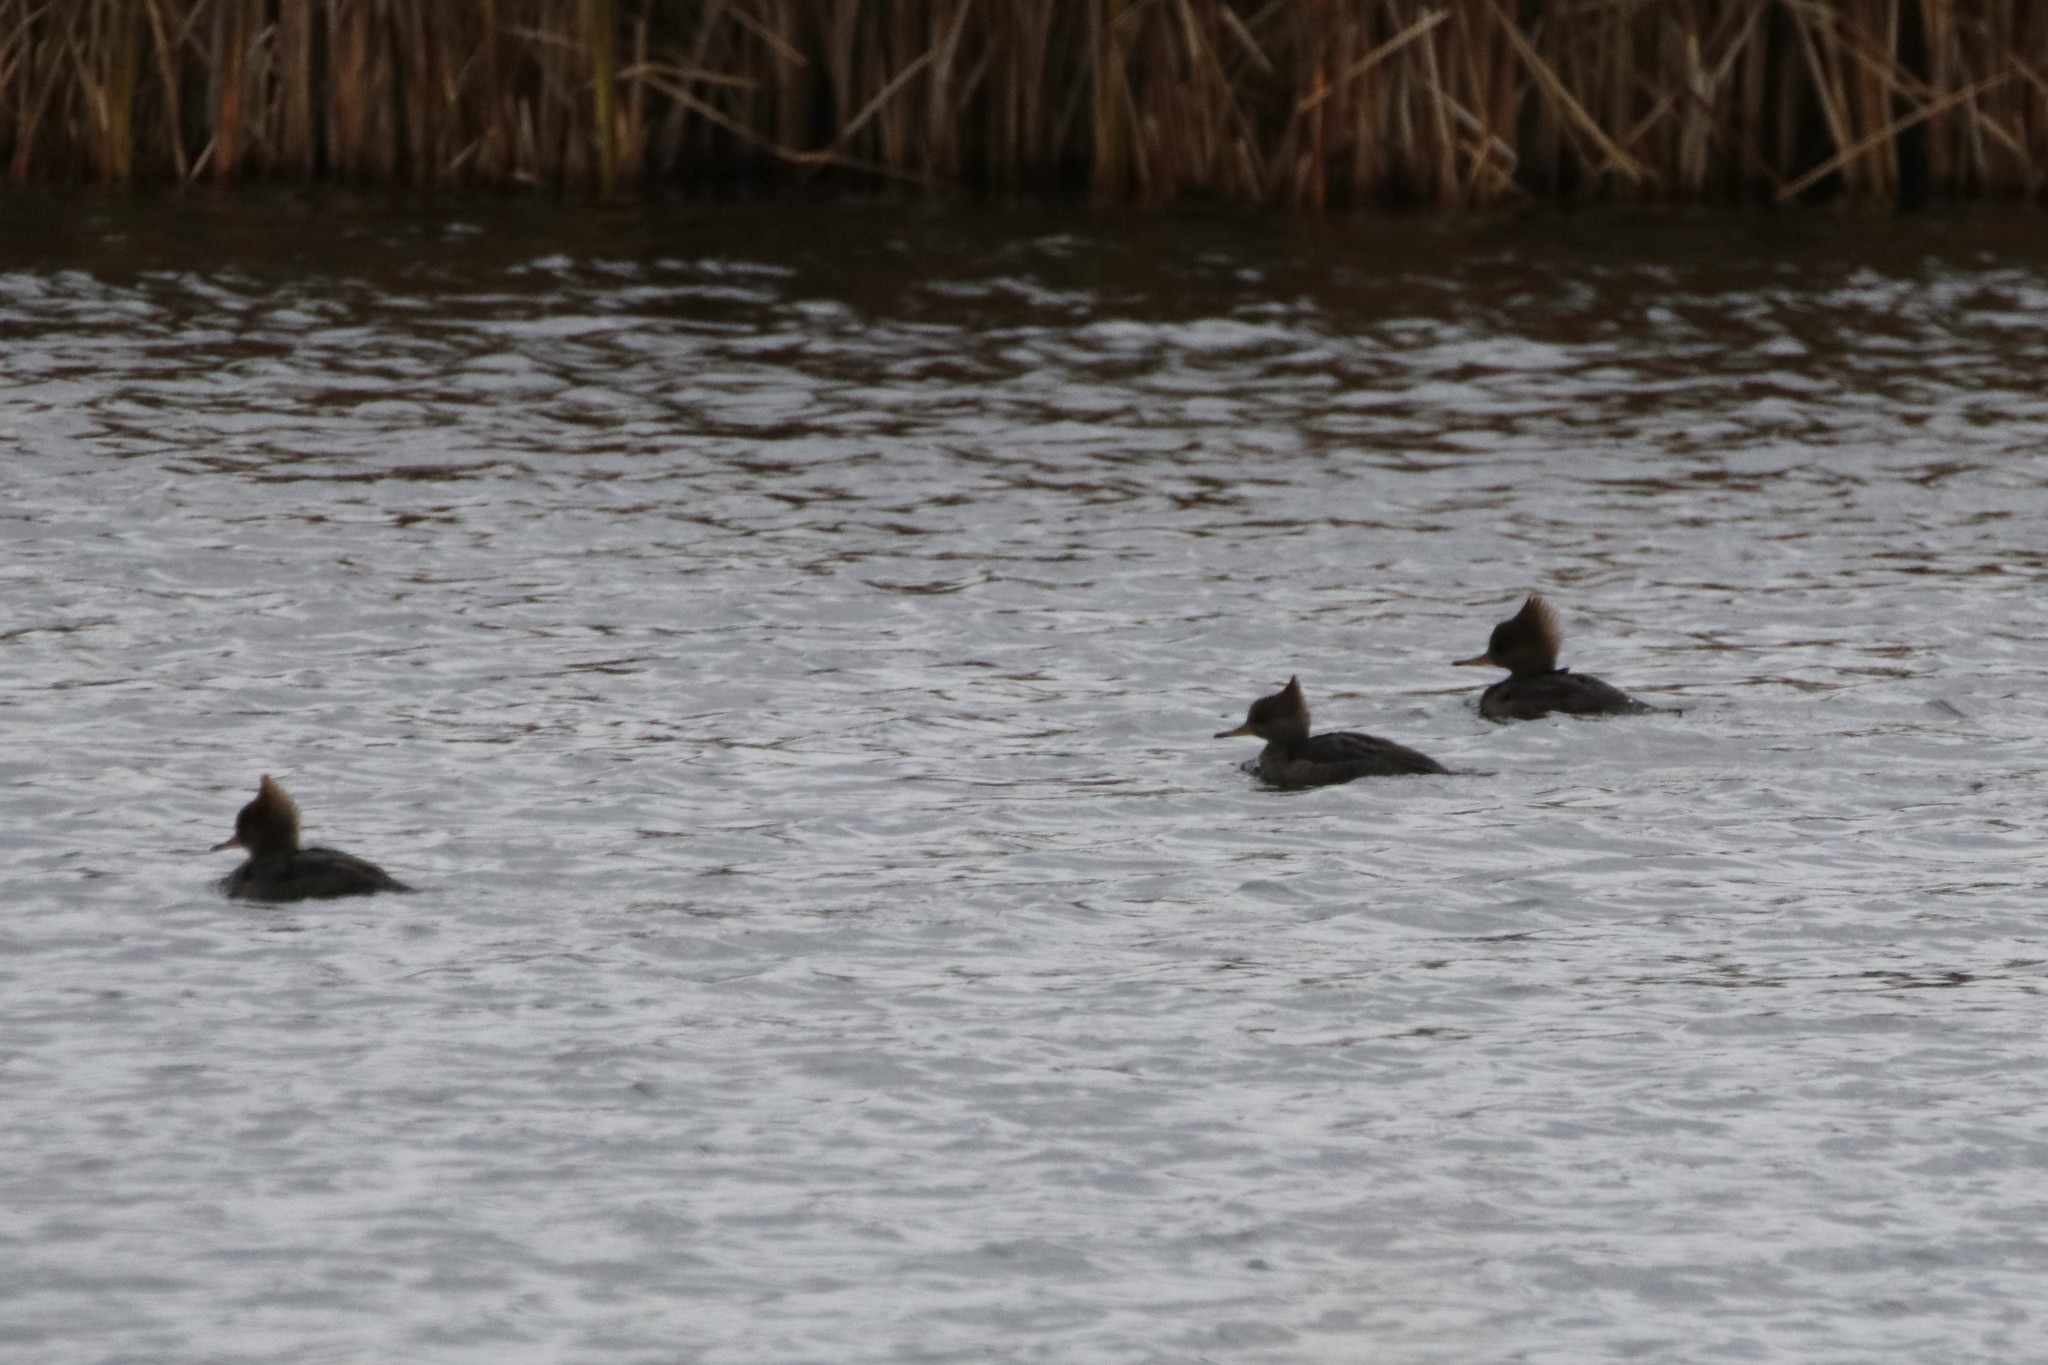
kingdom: Animalia
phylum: Chordata
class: Aves
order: Anseriformes
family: Anatidae
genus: Lophodytes
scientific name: Lophodytes cucullatus
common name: Hooded merganser
